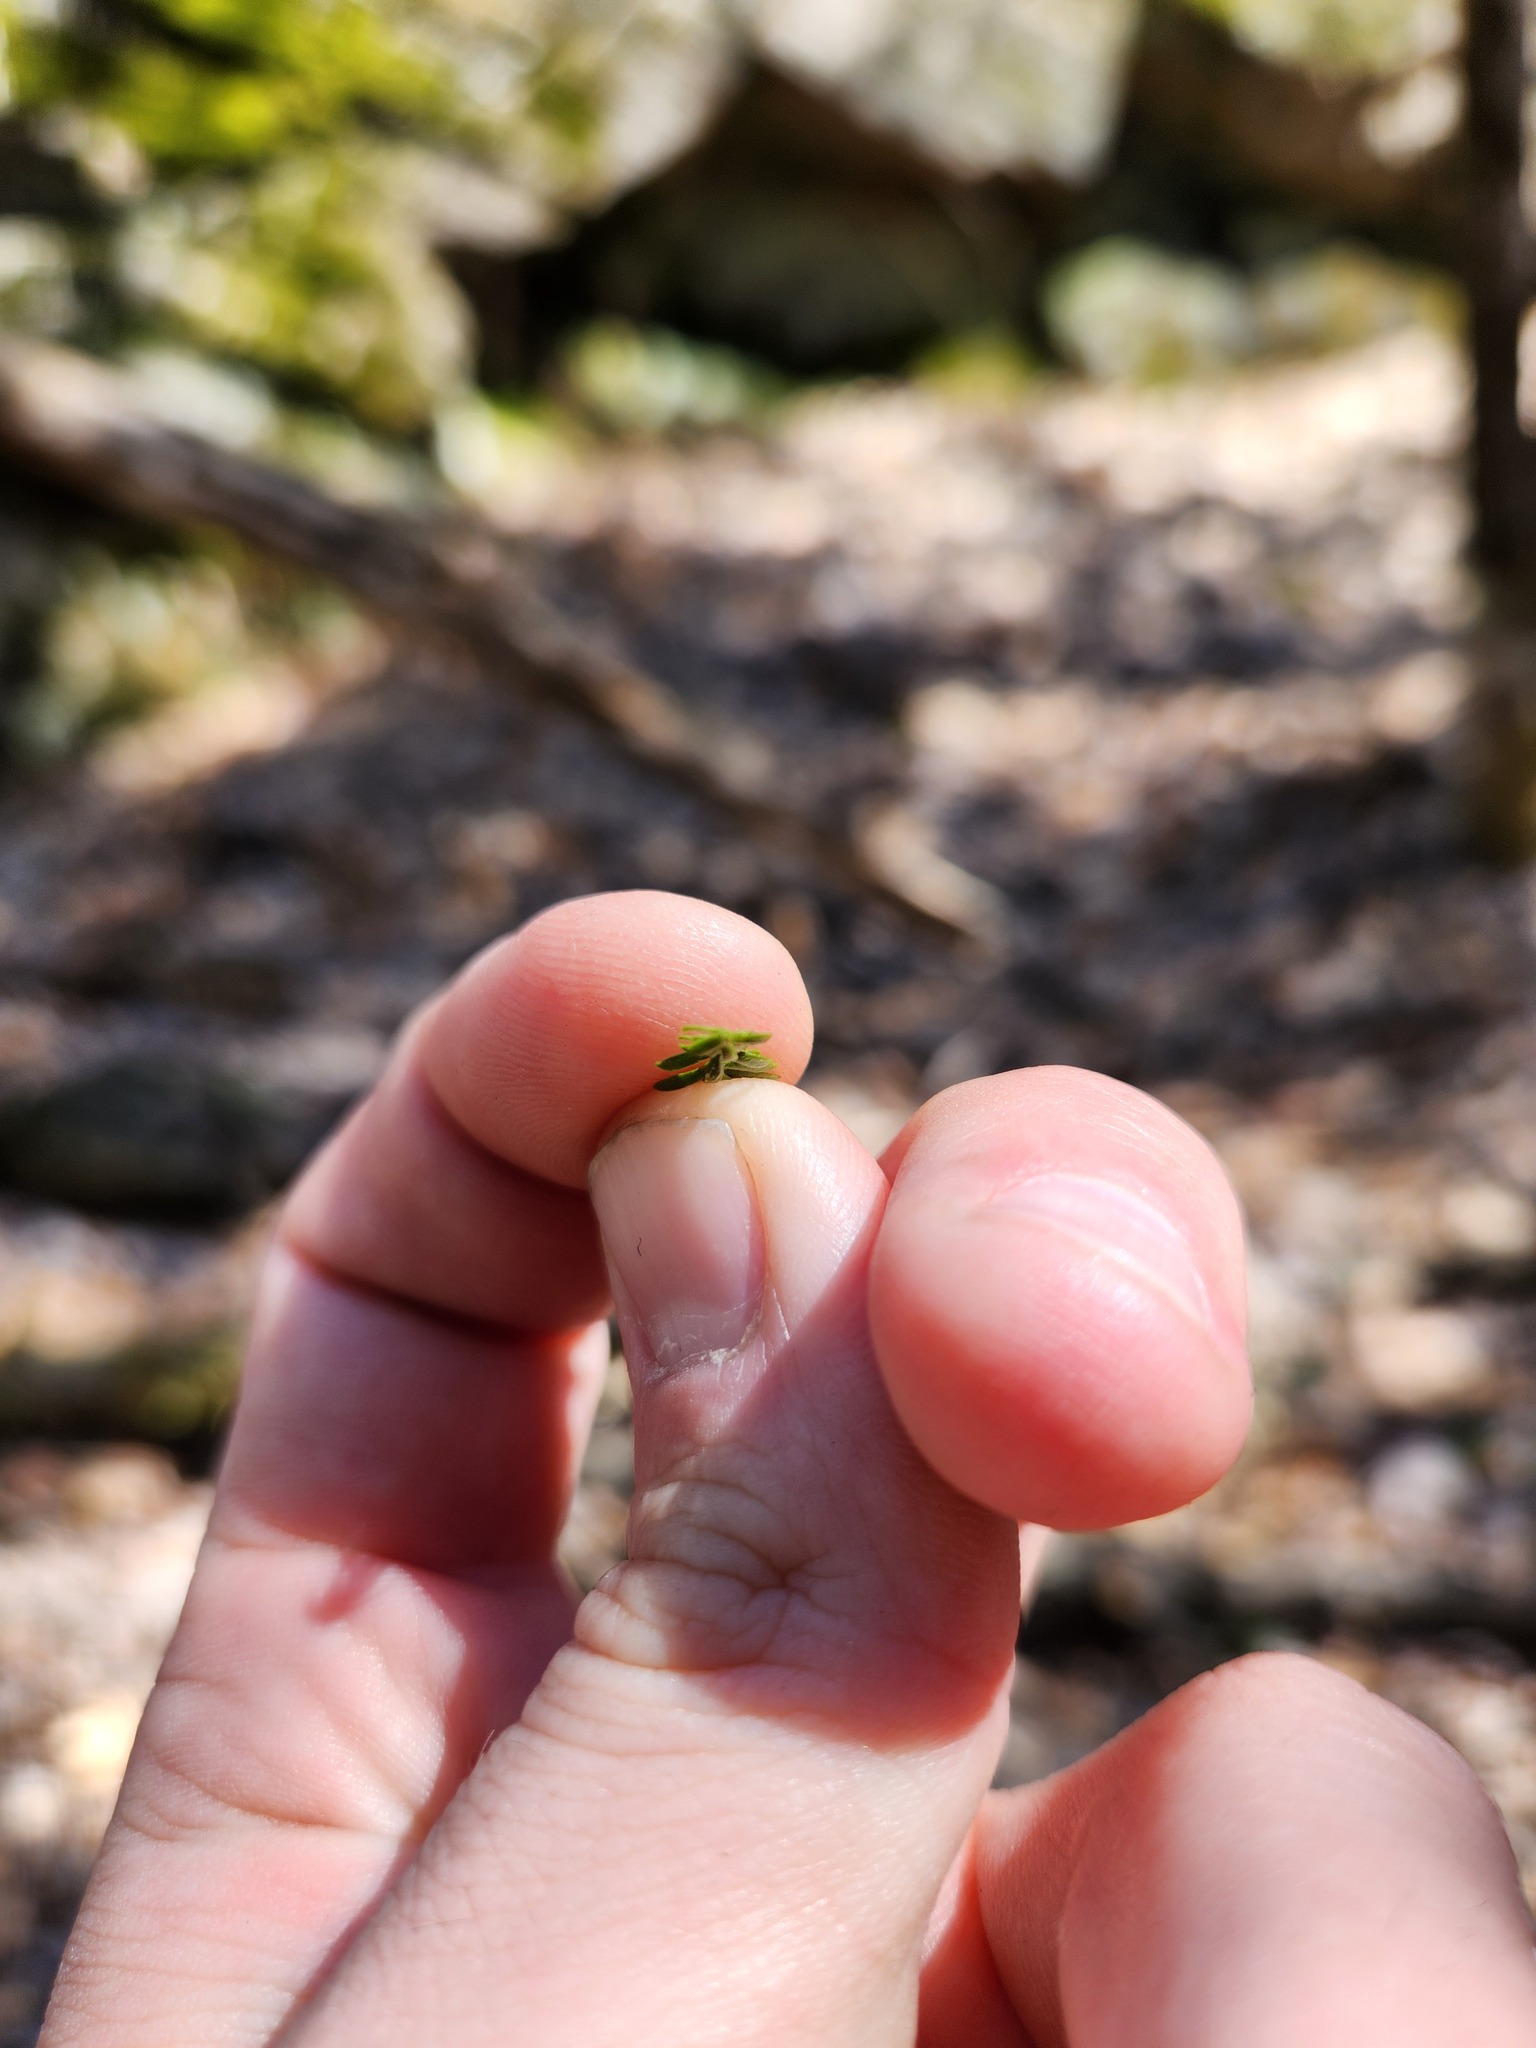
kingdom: Plantae
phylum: Tracheophyta
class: Lycopodiopsida
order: Lycopodiales
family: Lycopodiaceae
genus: Dendrolycopodium
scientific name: Dendrolycopodium obscurum
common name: Common ground-pine
